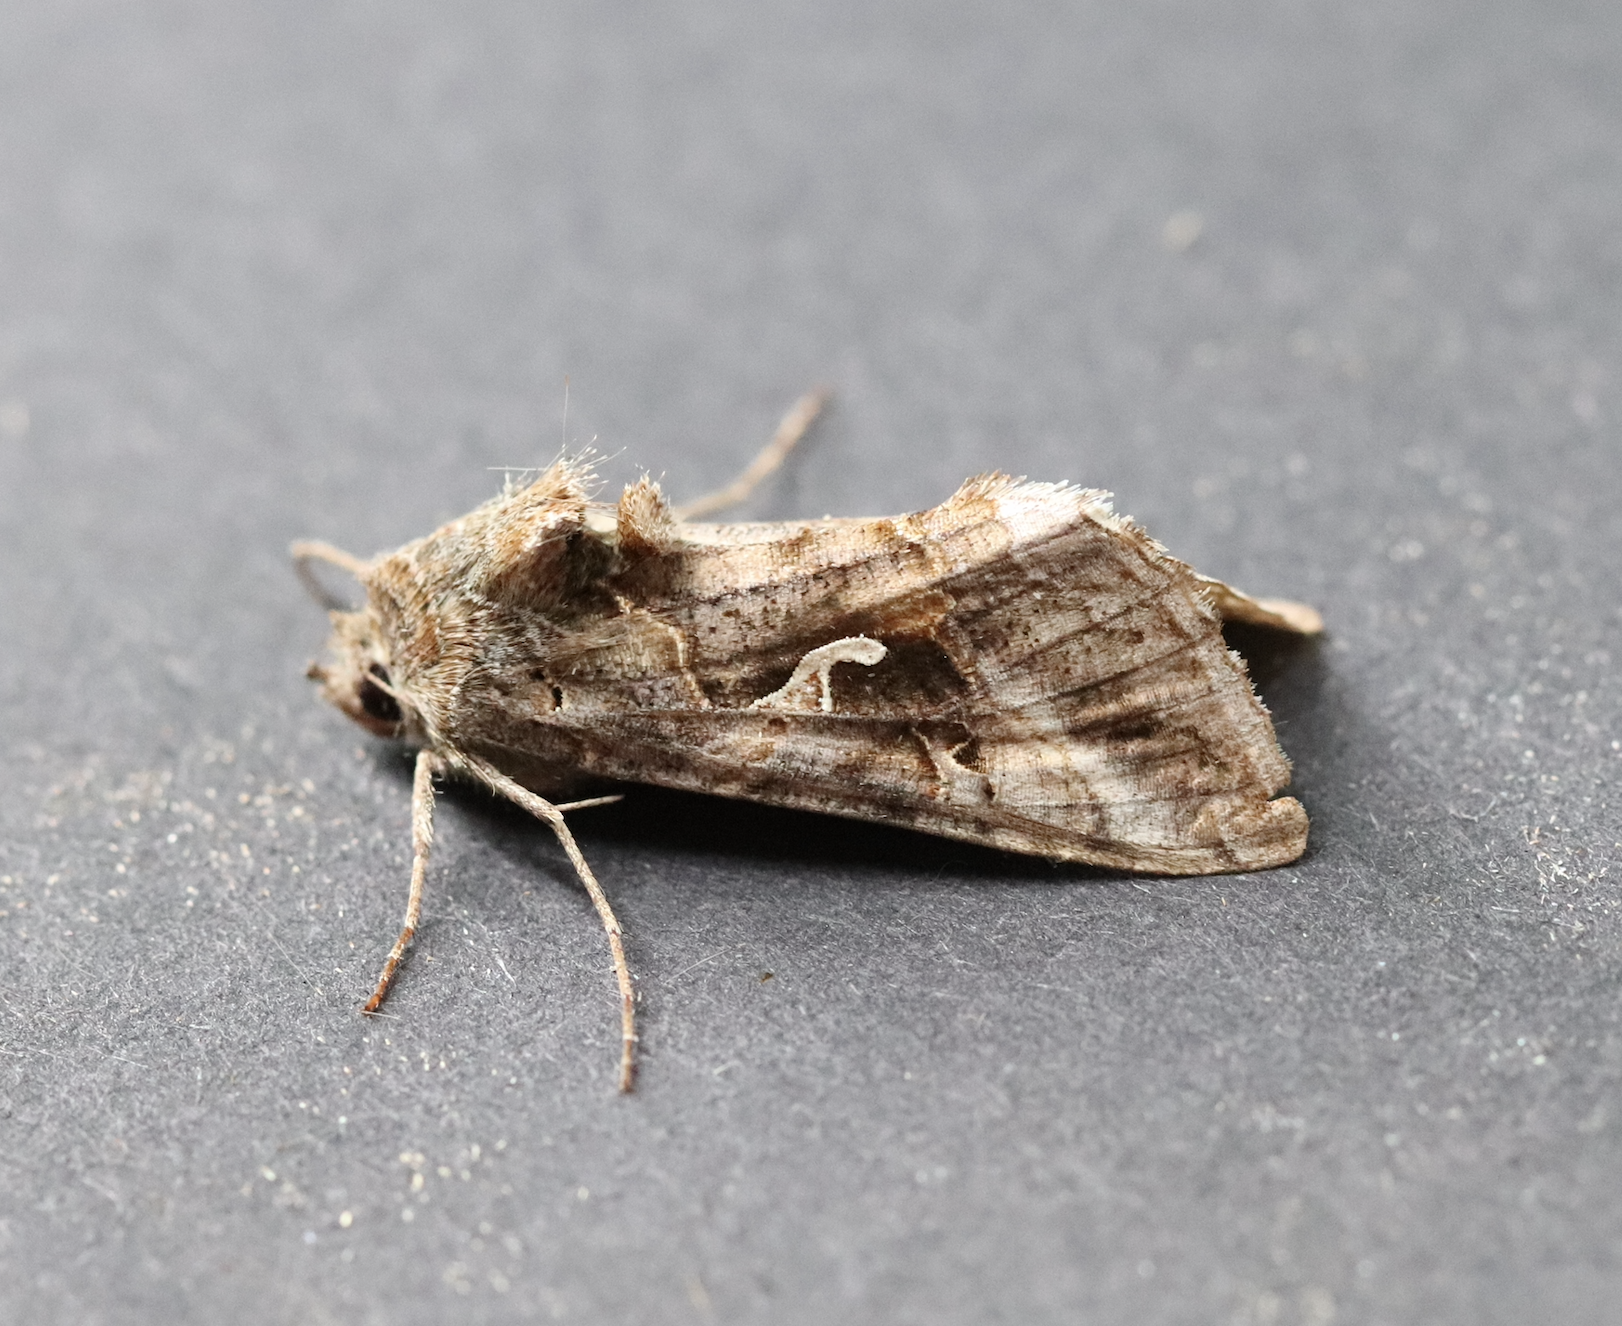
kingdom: Animalia
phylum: Arthropoda
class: Insecta
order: Lepidoptera
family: Noctuidae
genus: Autographa
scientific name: Autographa gamma
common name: Silver y
